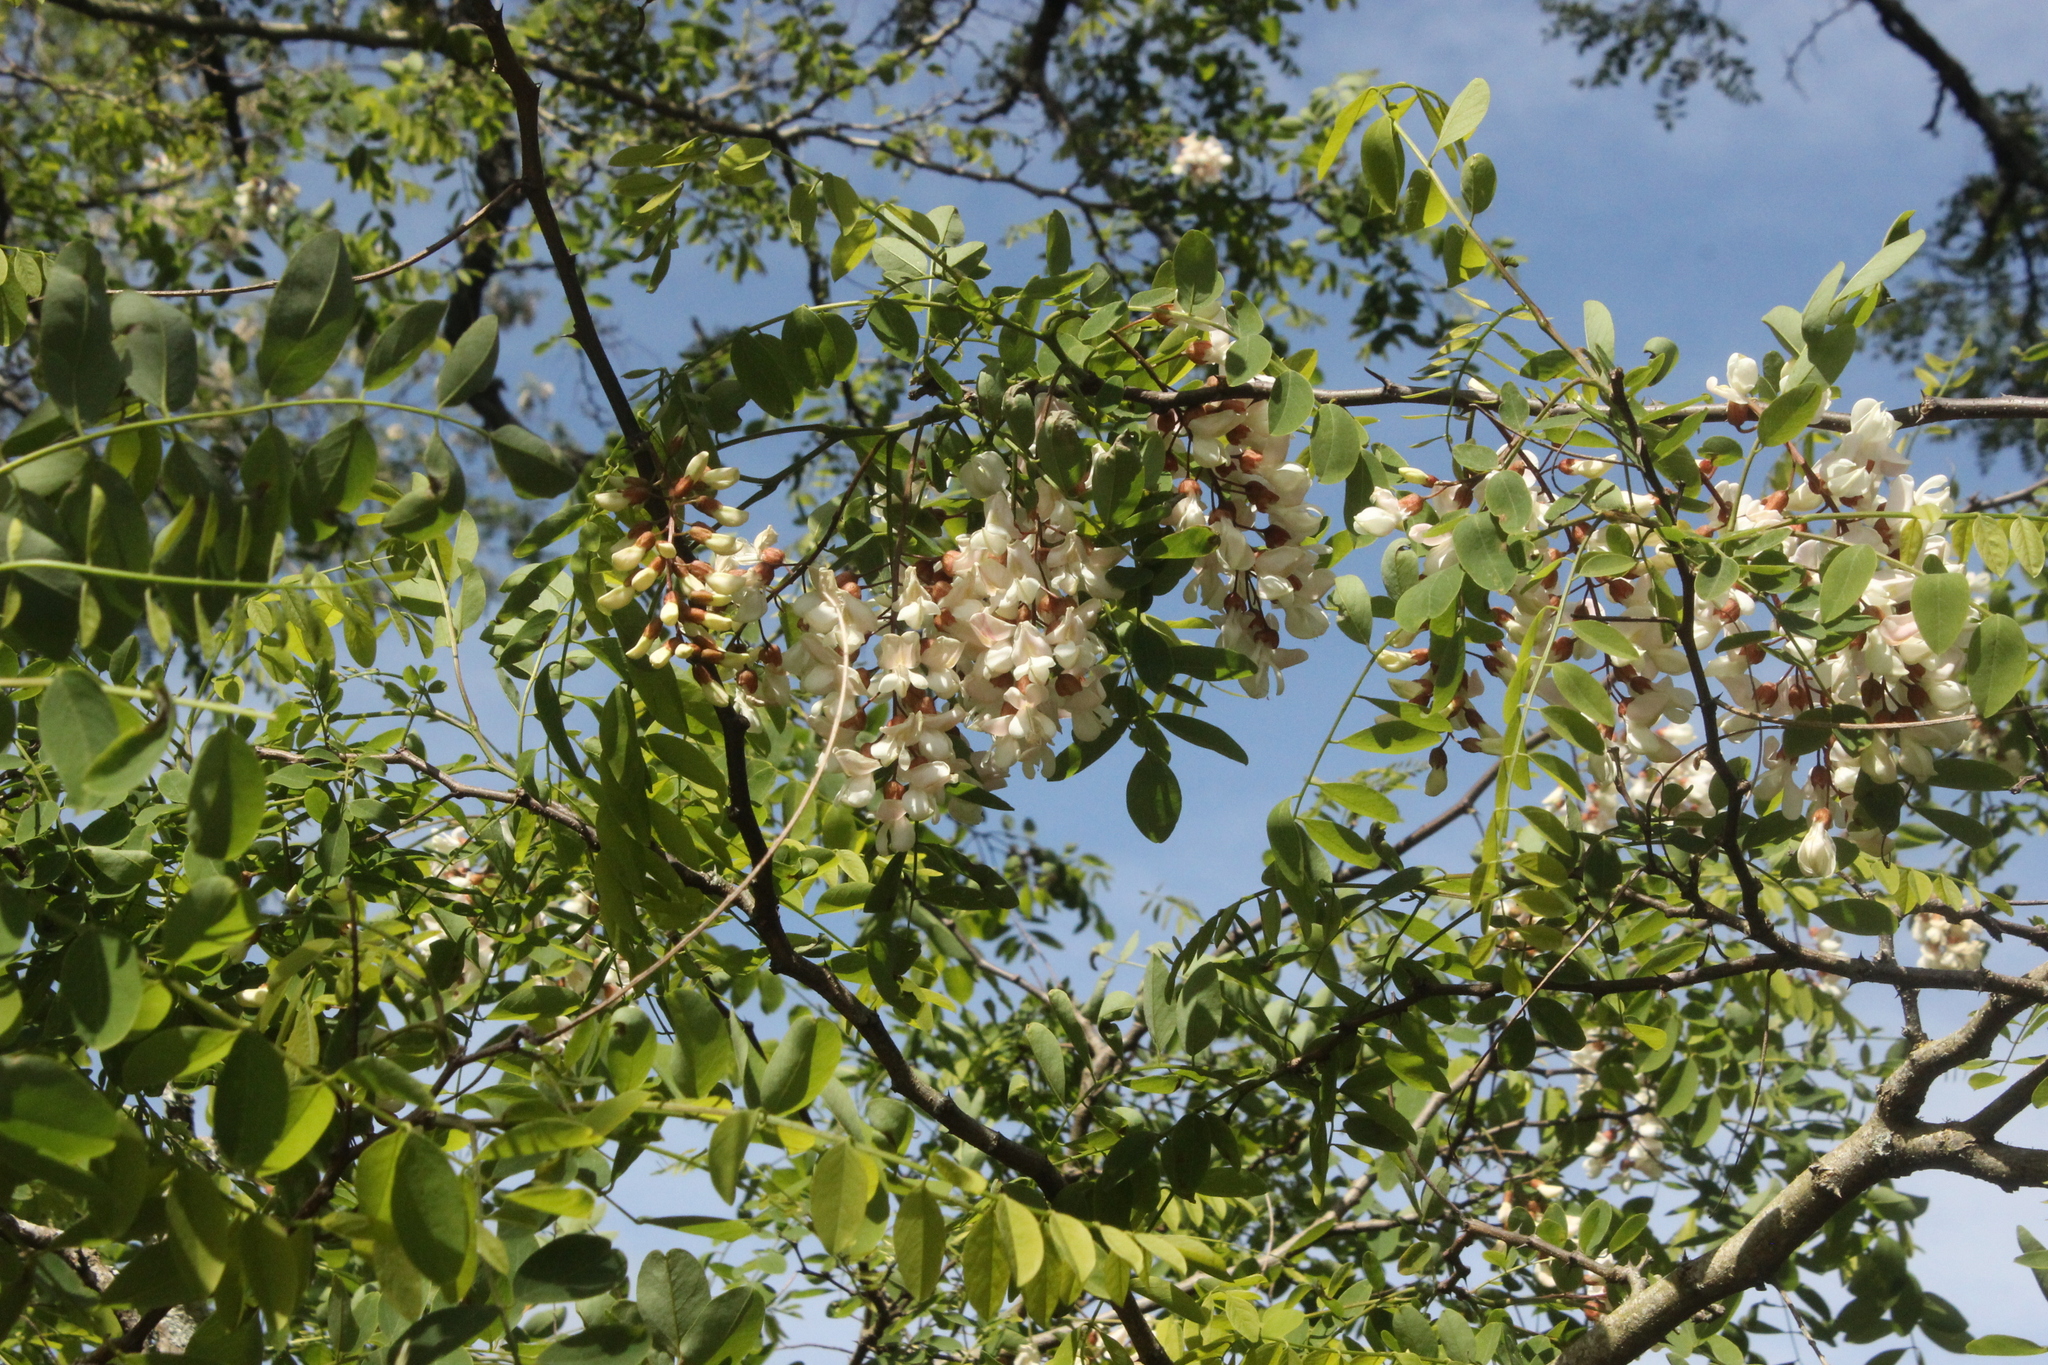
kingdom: Plantae
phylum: Tracheophyta
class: Magnoliopsida
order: Fabales
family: Fabaceae
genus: Robinia
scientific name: Robinia pseudoacacia
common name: Black locust
